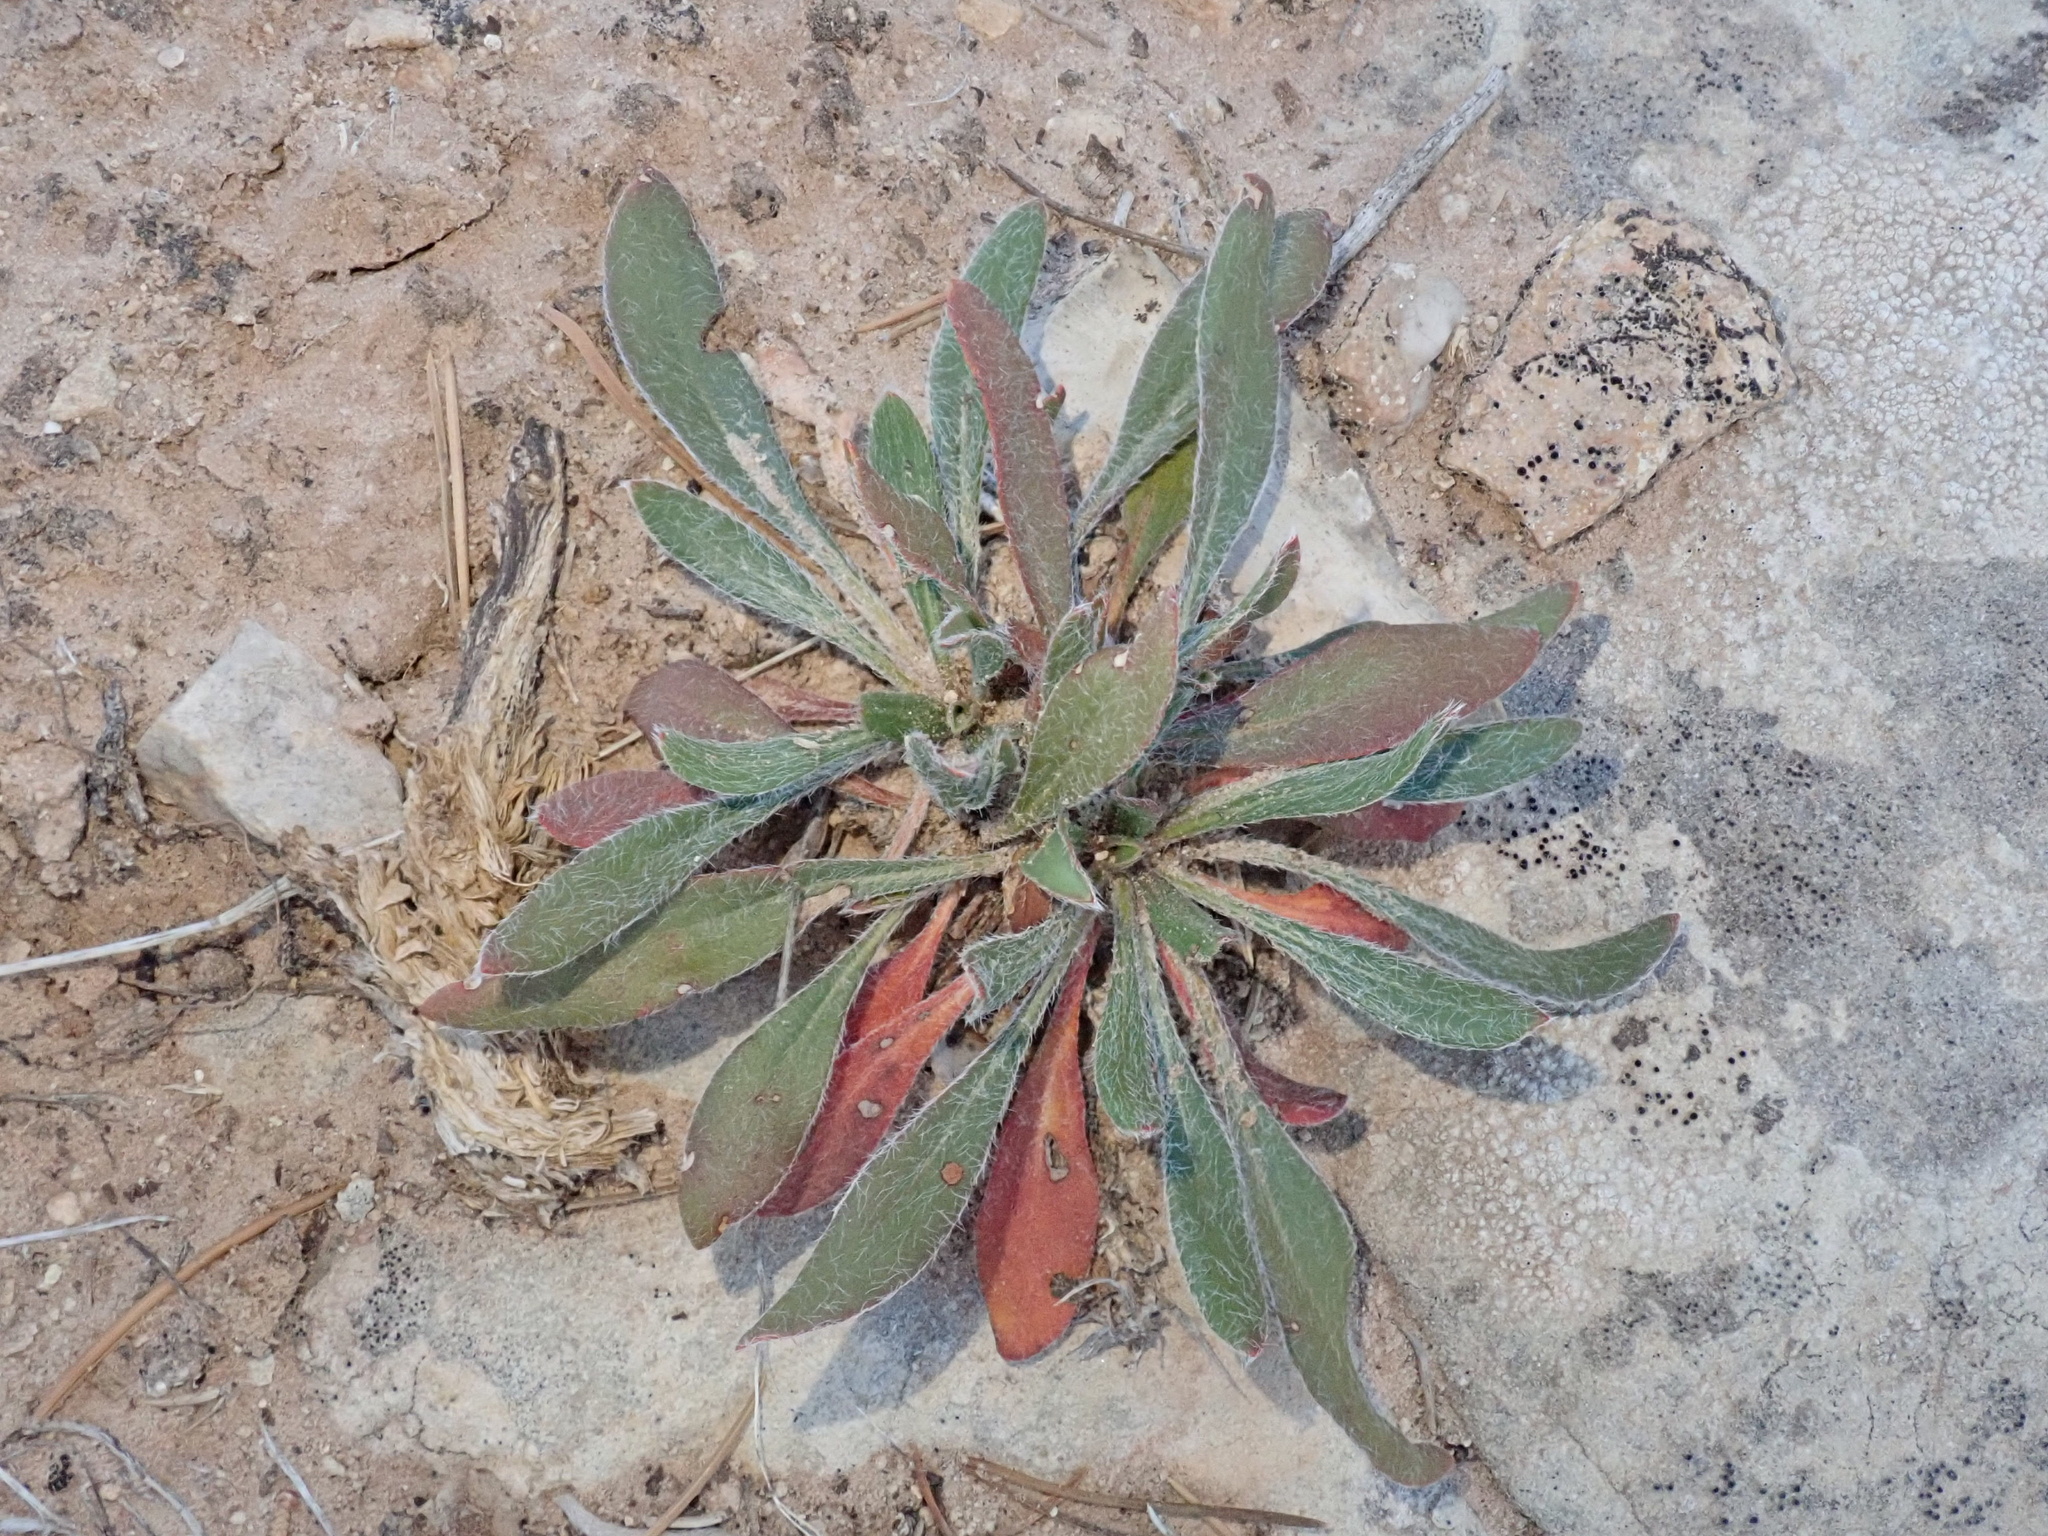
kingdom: Plantae
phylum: Tracheophyta
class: Magnoliopsida
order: Caryophyllales
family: Polygonaceae
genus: Eriogonum
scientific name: Eriogonum alatum
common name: Winged eriogonum
